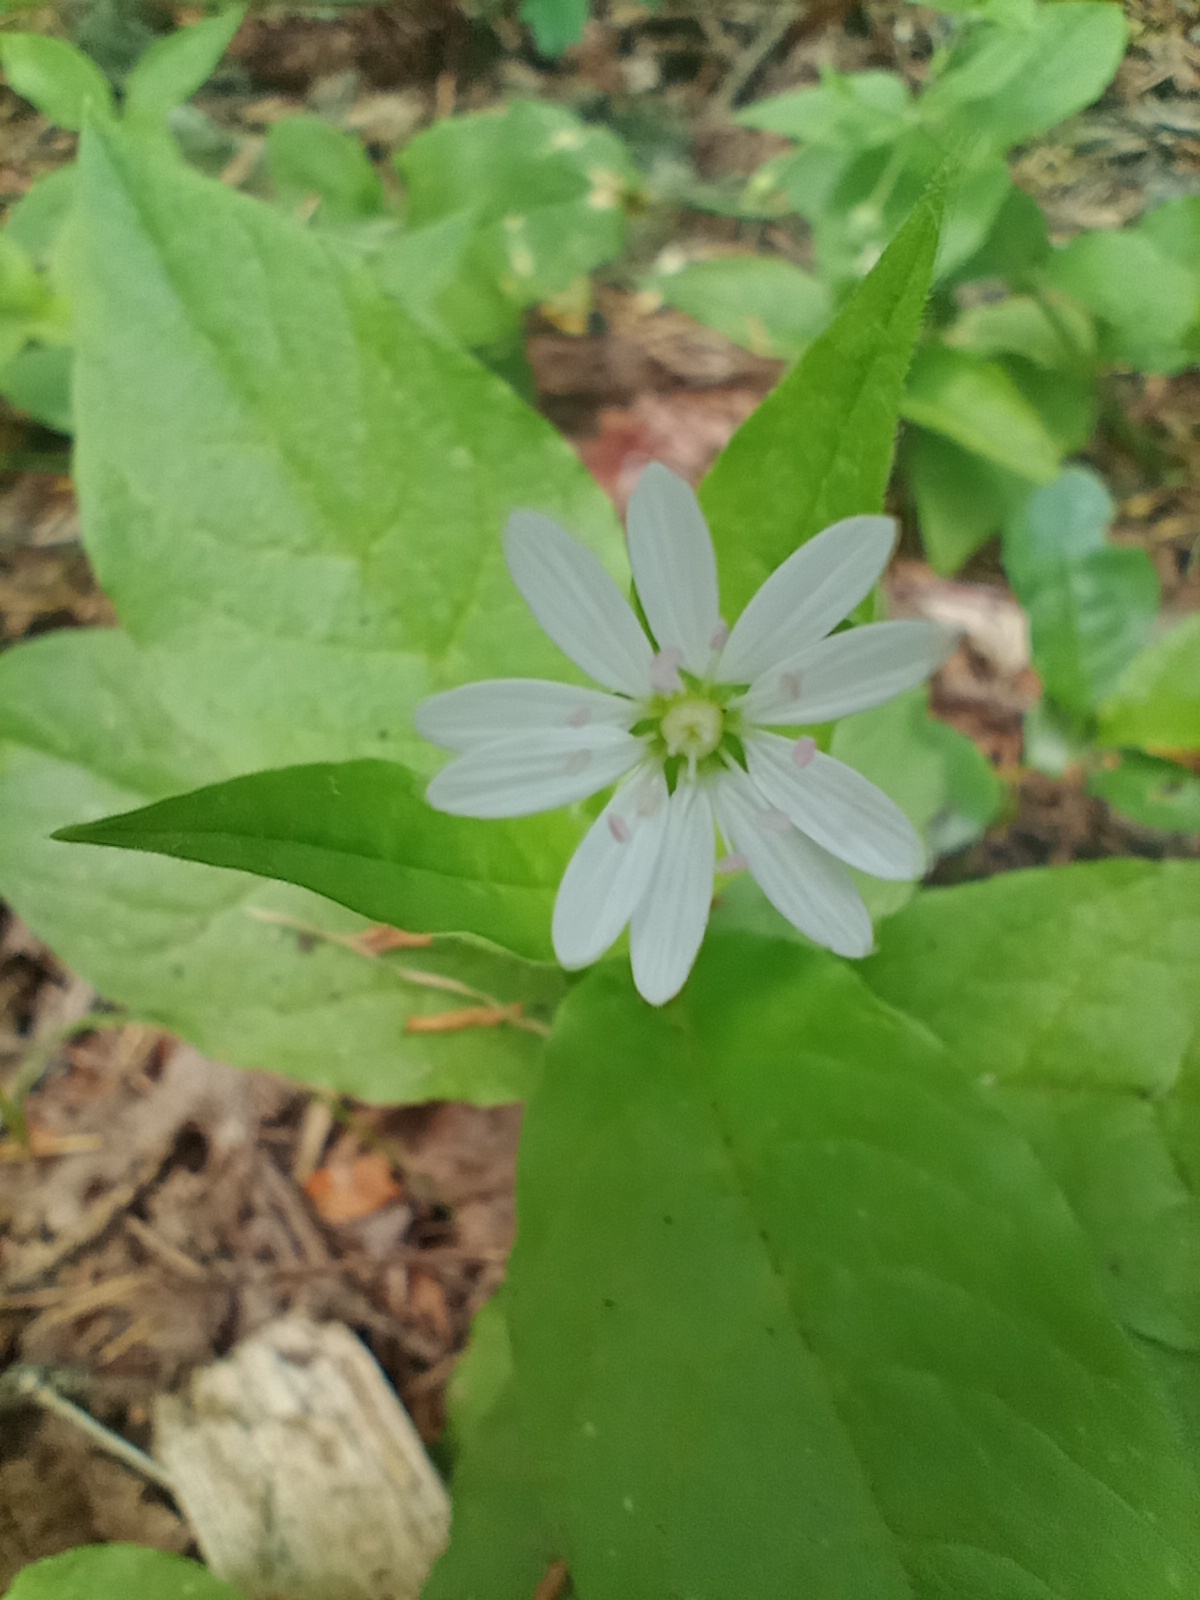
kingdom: Plantae
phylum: Tracheophyta
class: Magnoliopsida
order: Caryophyllales
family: Caryophyllaceae
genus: Stellaria
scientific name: Stellaria bungeana
